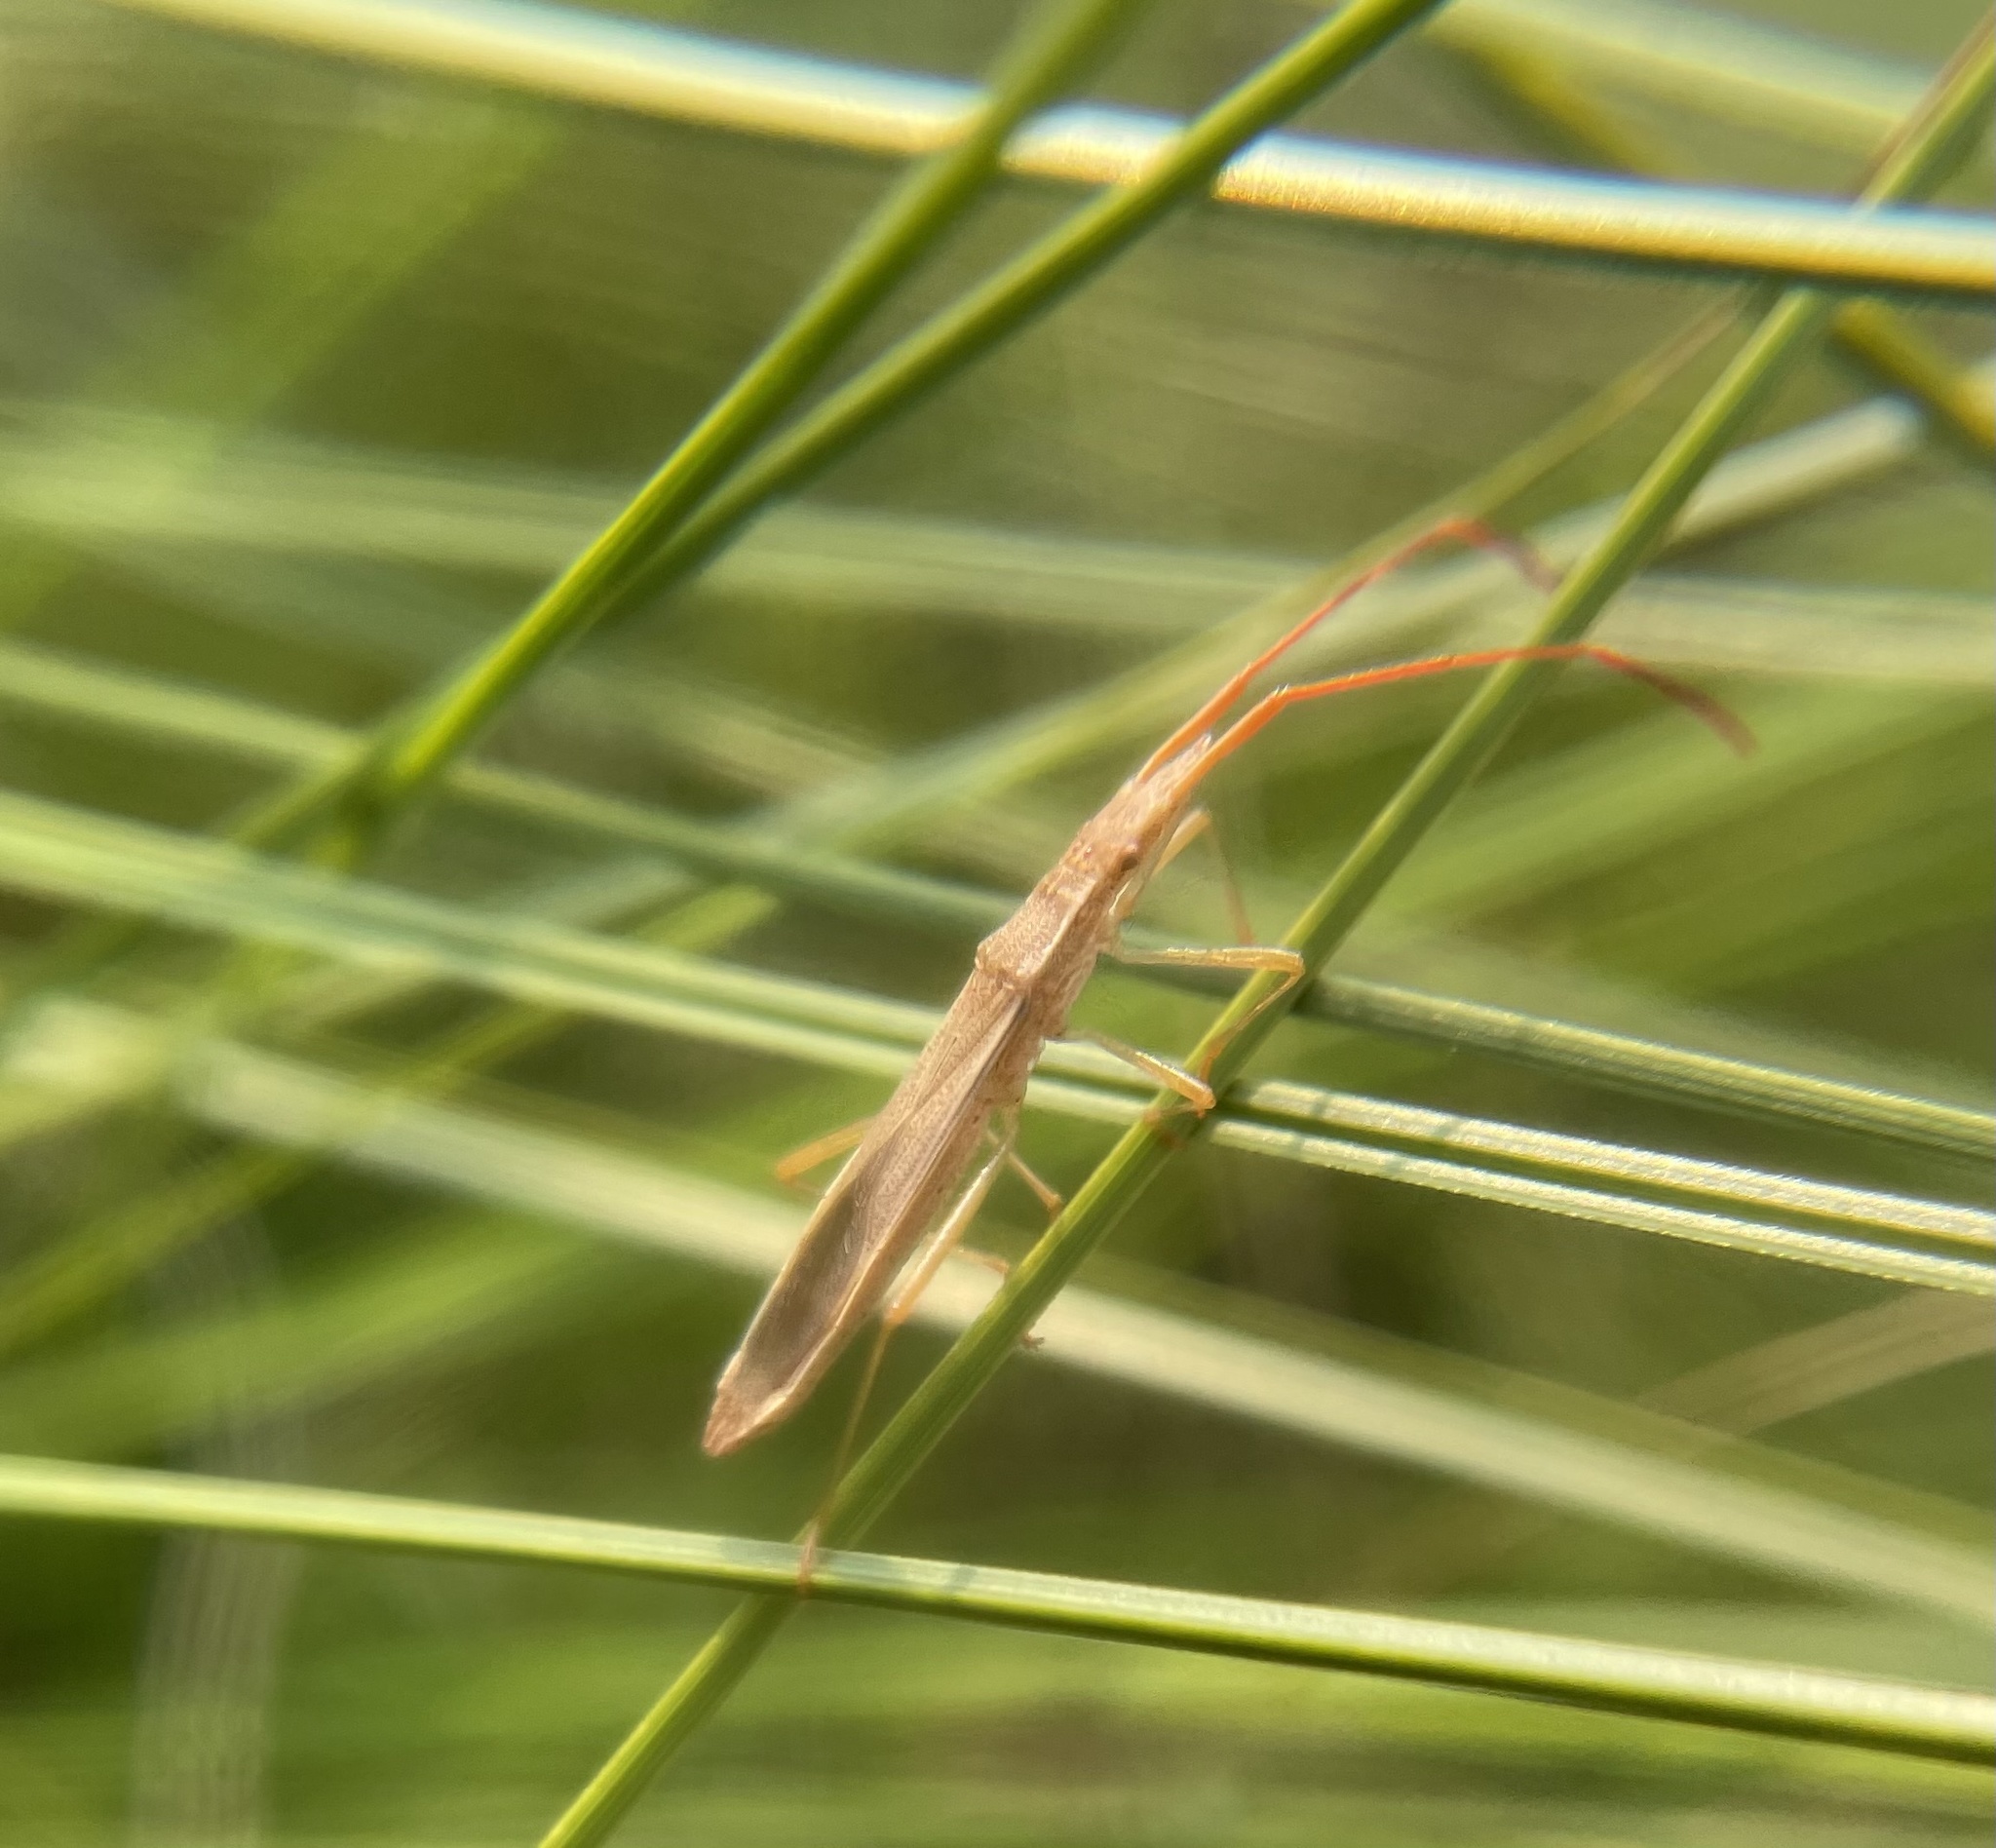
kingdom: Animalia
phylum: Arthropoda
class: Insecta
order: Hemiptera
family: Alydidae
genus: Protenor
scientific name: Protenor belfragei
